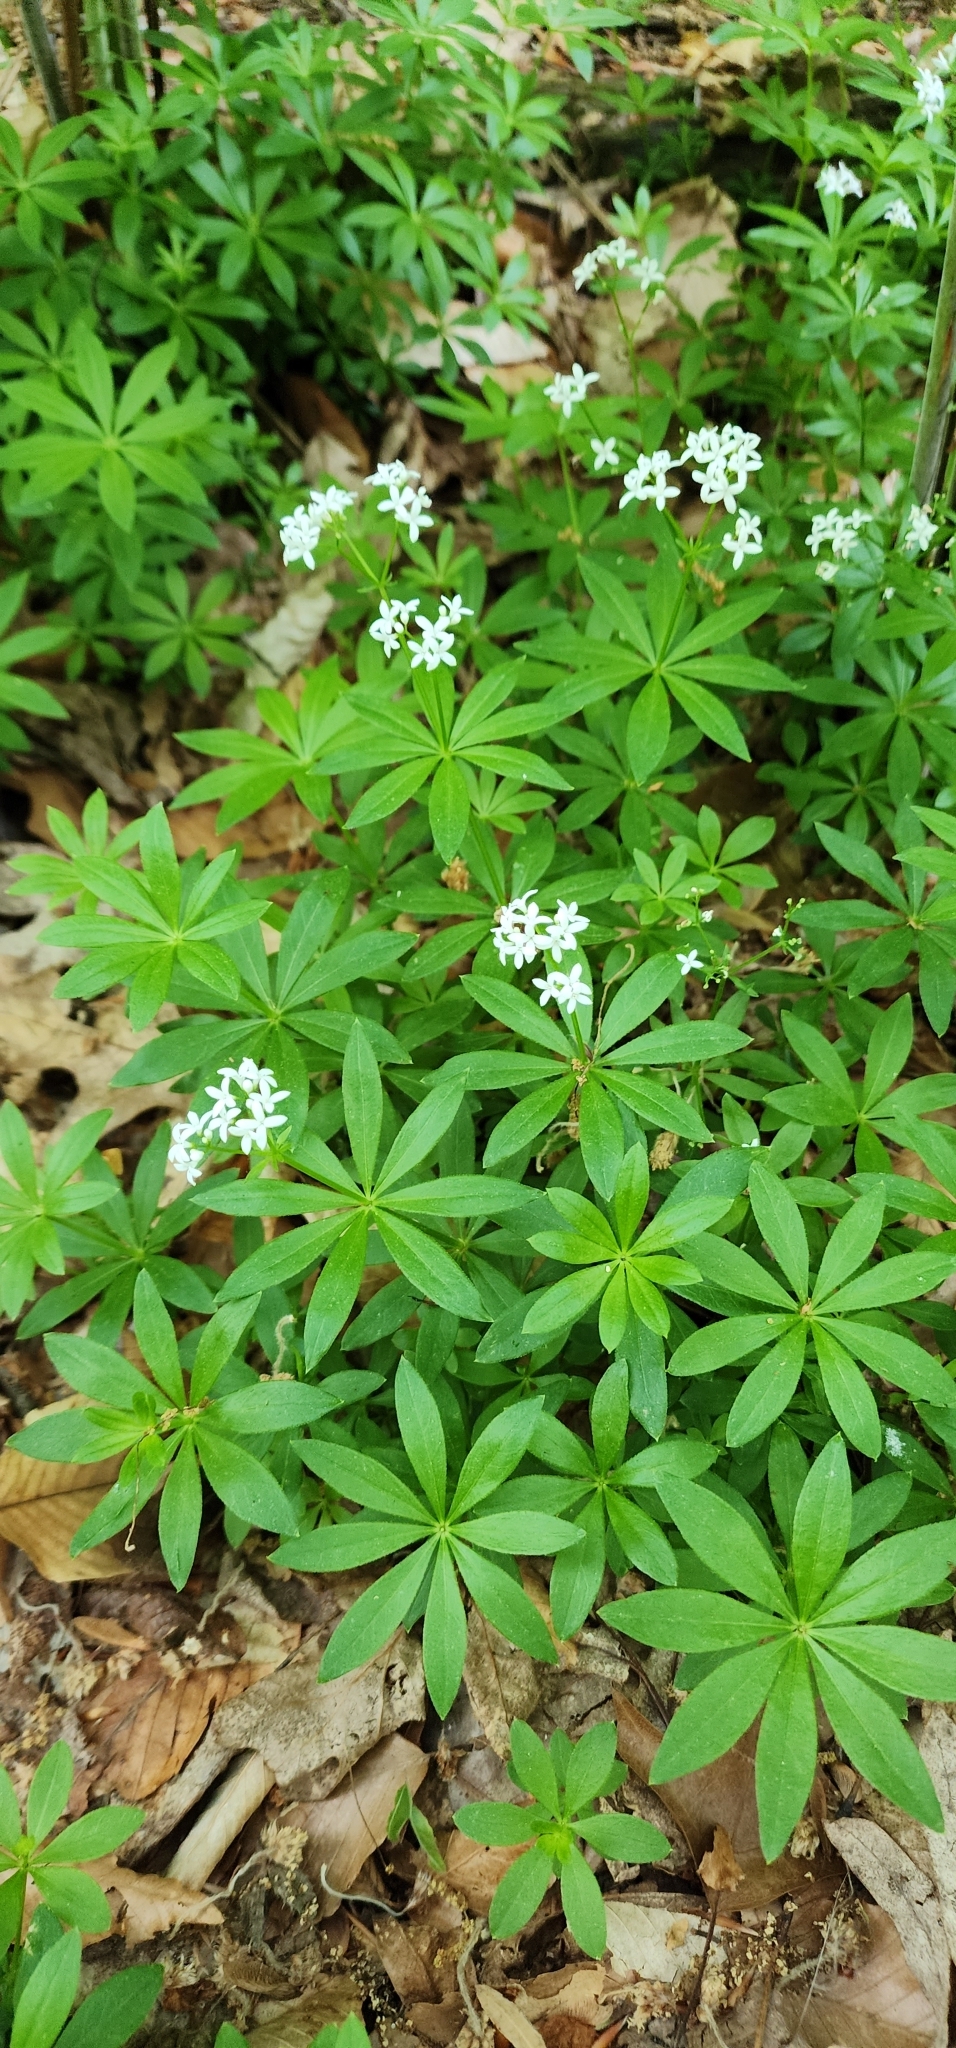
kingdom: Plantae
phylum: Tracheophyta
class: Magnoliopsida
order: Gentianales
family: Rubiaceae
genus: Galium
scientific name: Galium odoratum
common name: Sweet woodruff
